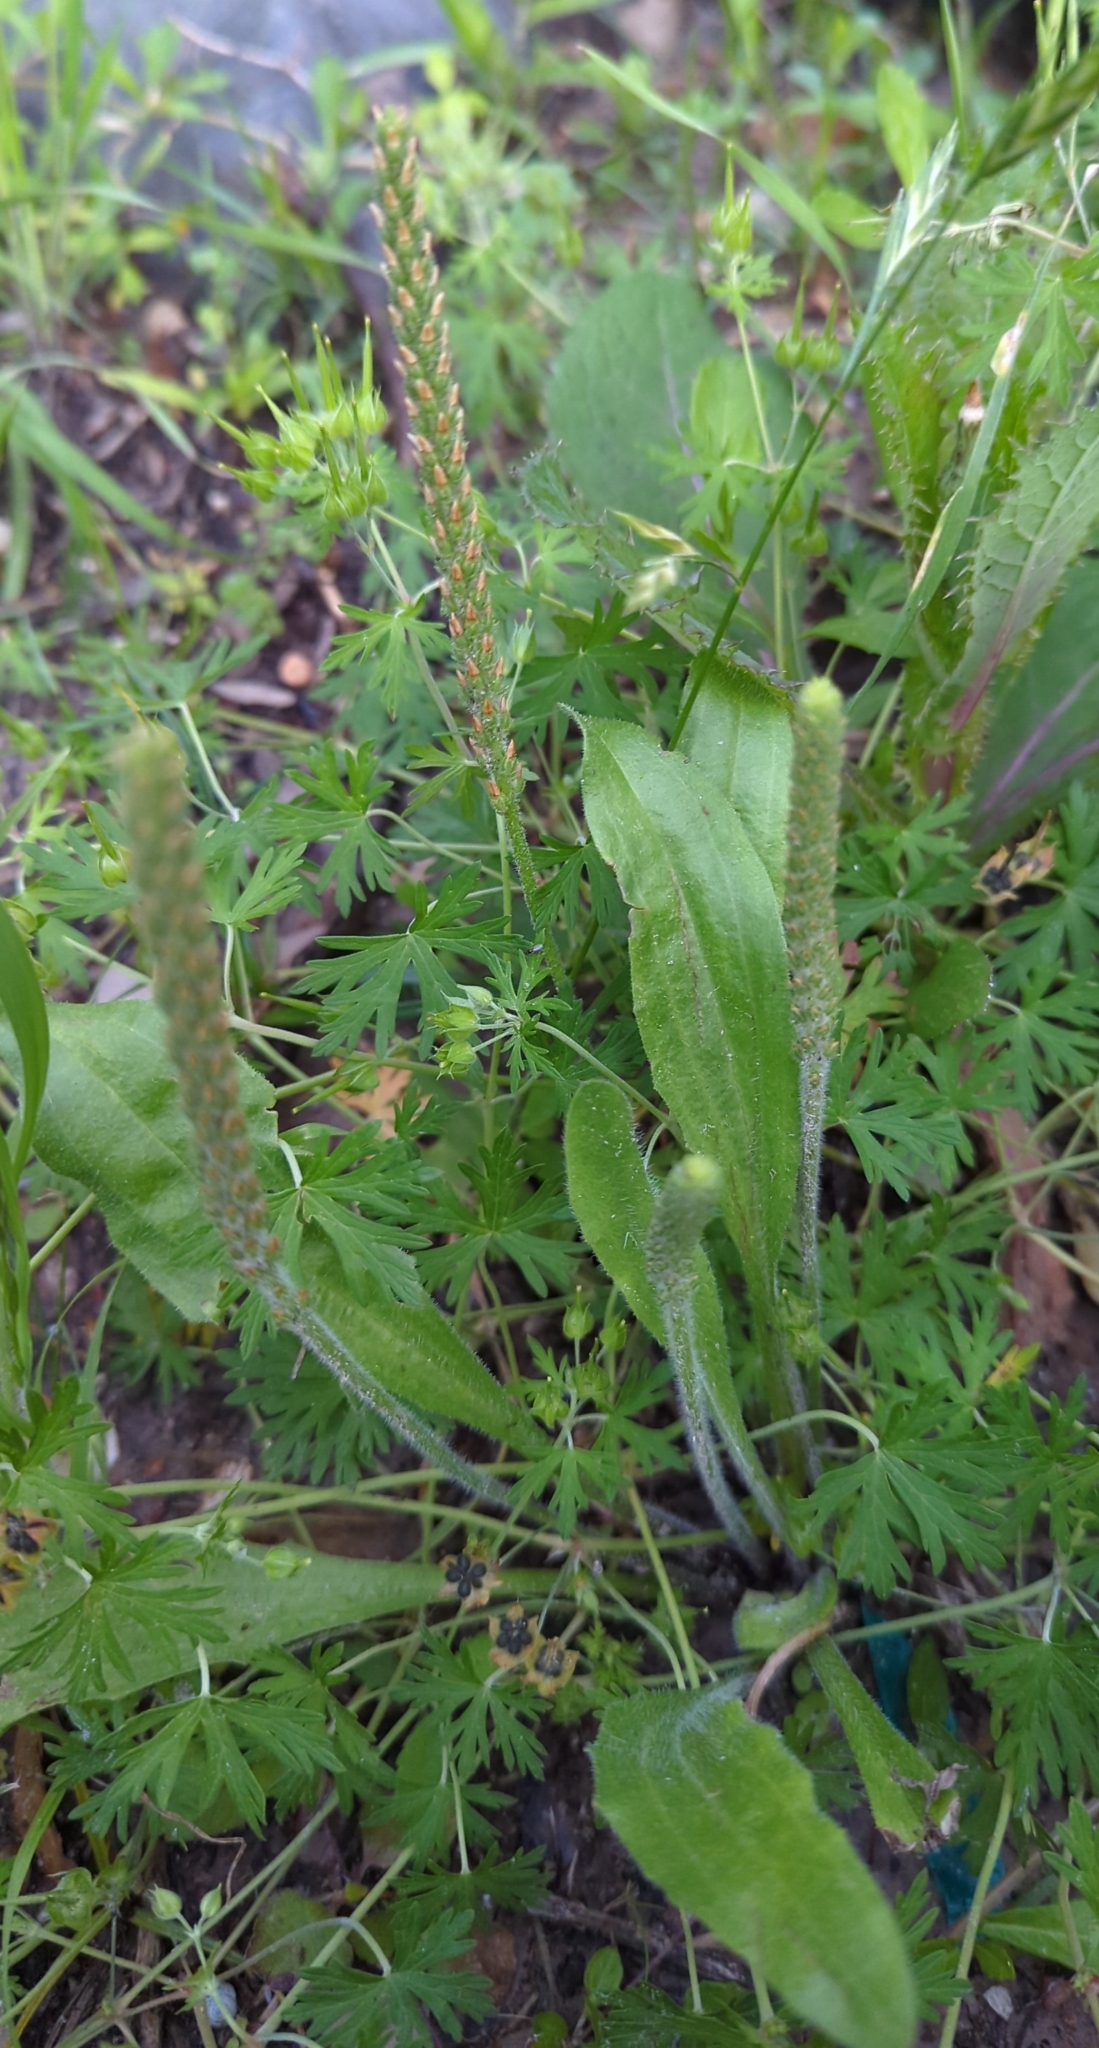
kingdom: Plantae
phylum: Tracheophyta
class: Magnoliopsida
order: Lamiales
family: Plantaginaceae
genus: Plantago
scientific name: Plantago rhodosperma
